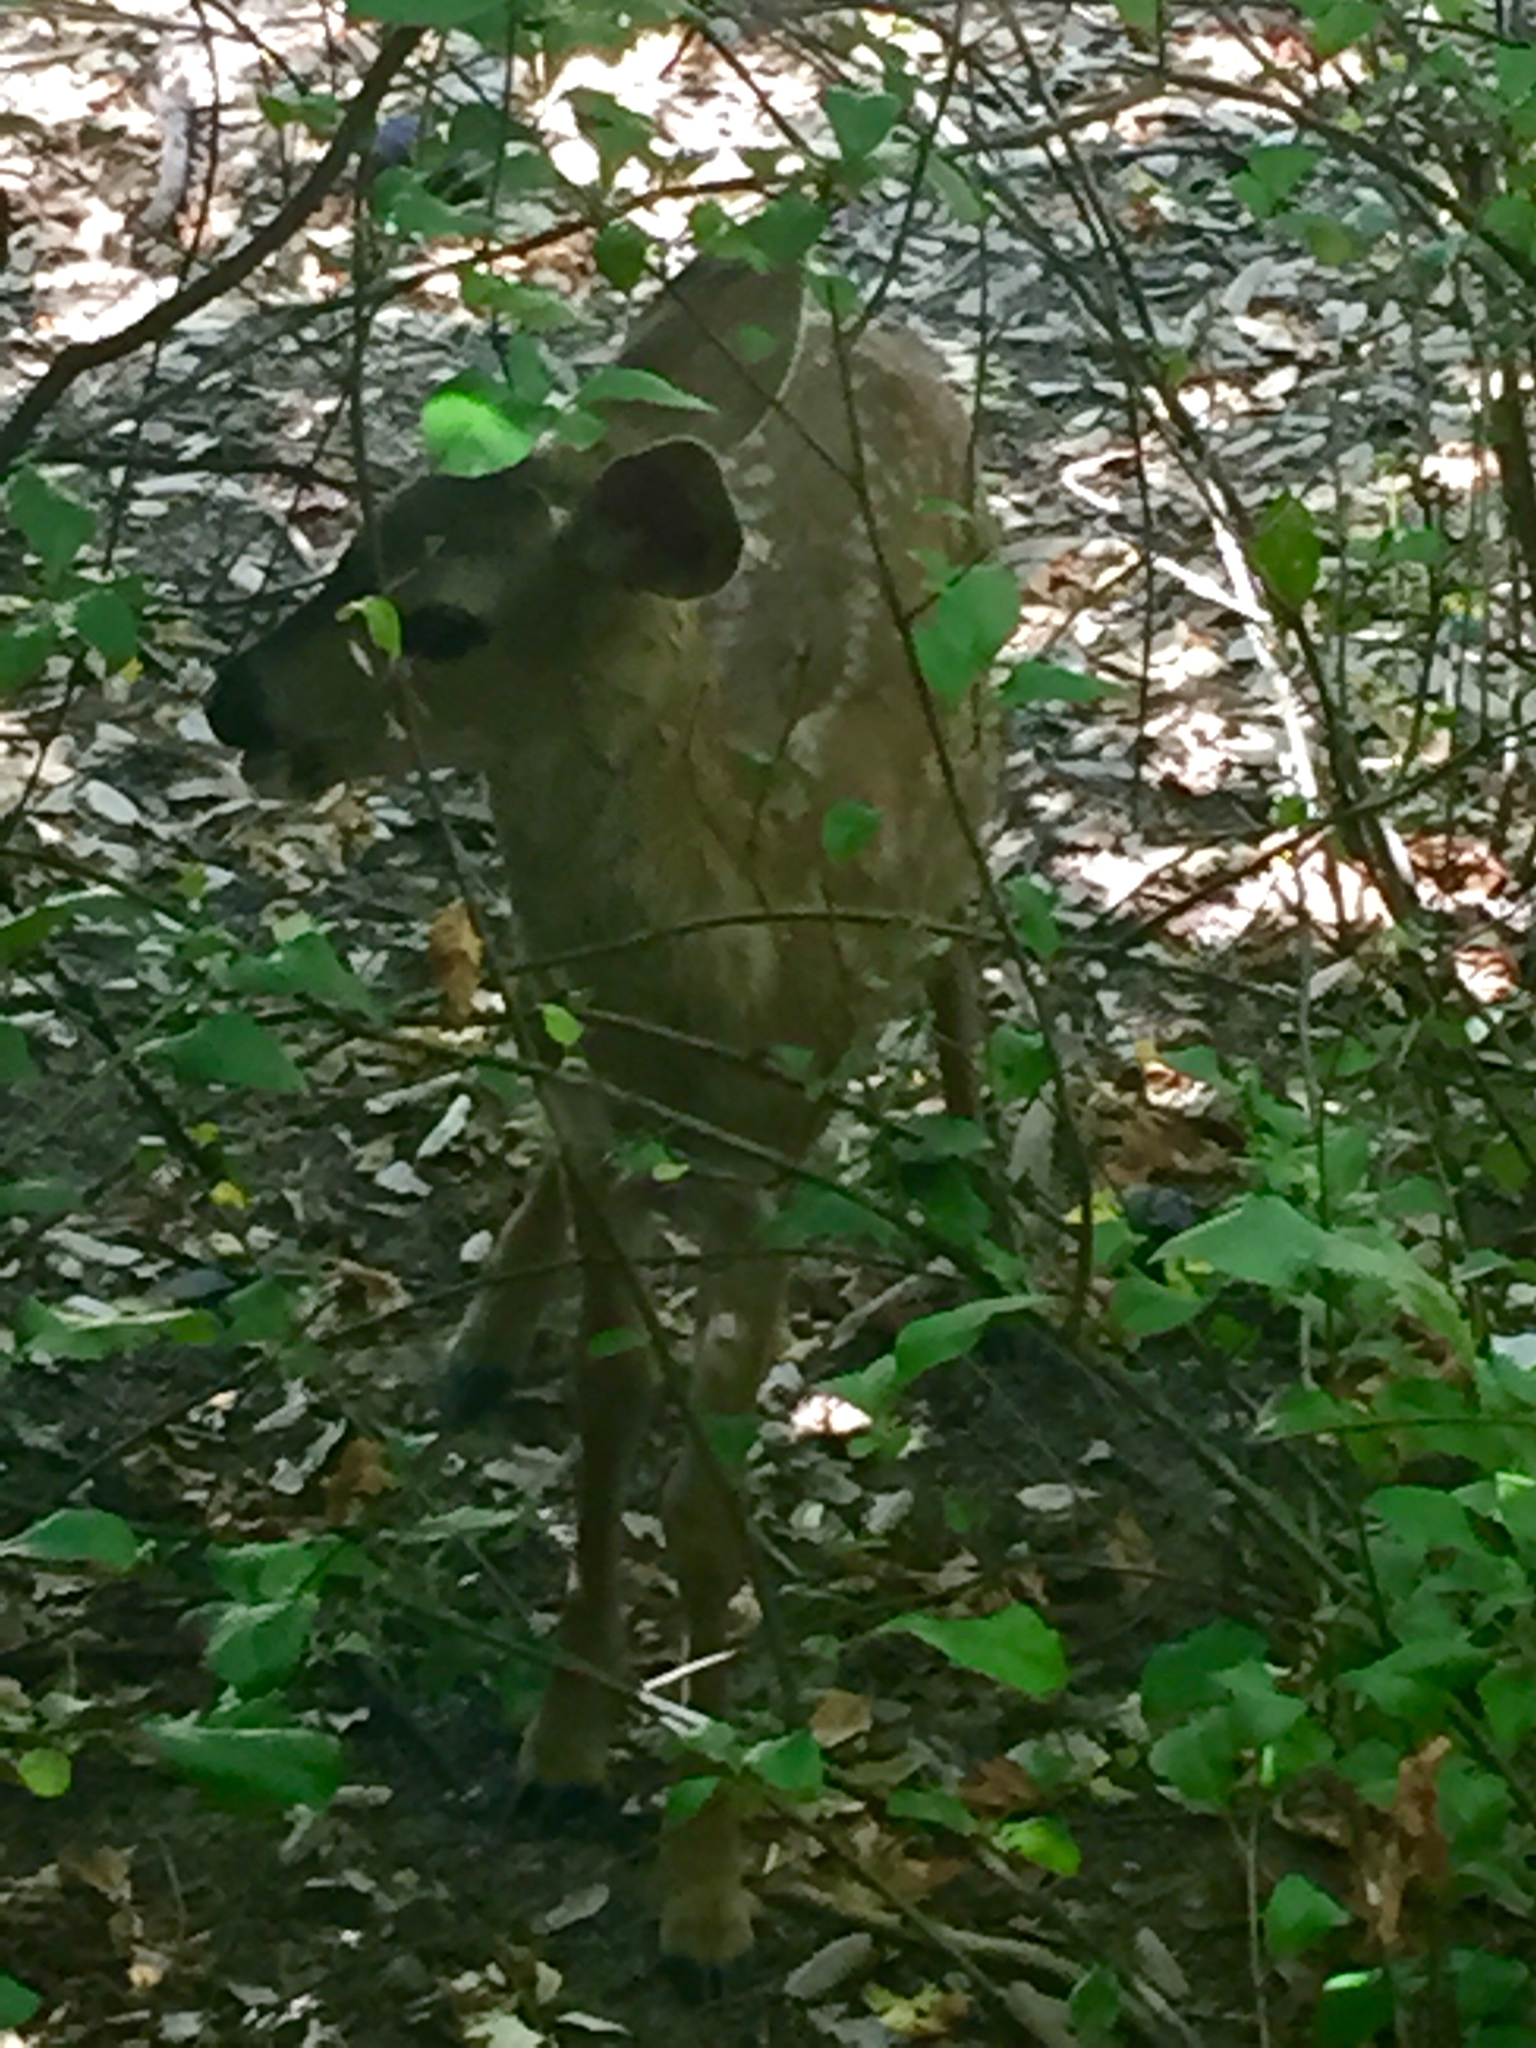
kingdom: Animalia
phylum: Chordata
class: Mammalia
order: Artiodactyla
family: Cervidae
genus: Odocoileus
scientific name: Odocoileus hemionus
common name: Mule deer
